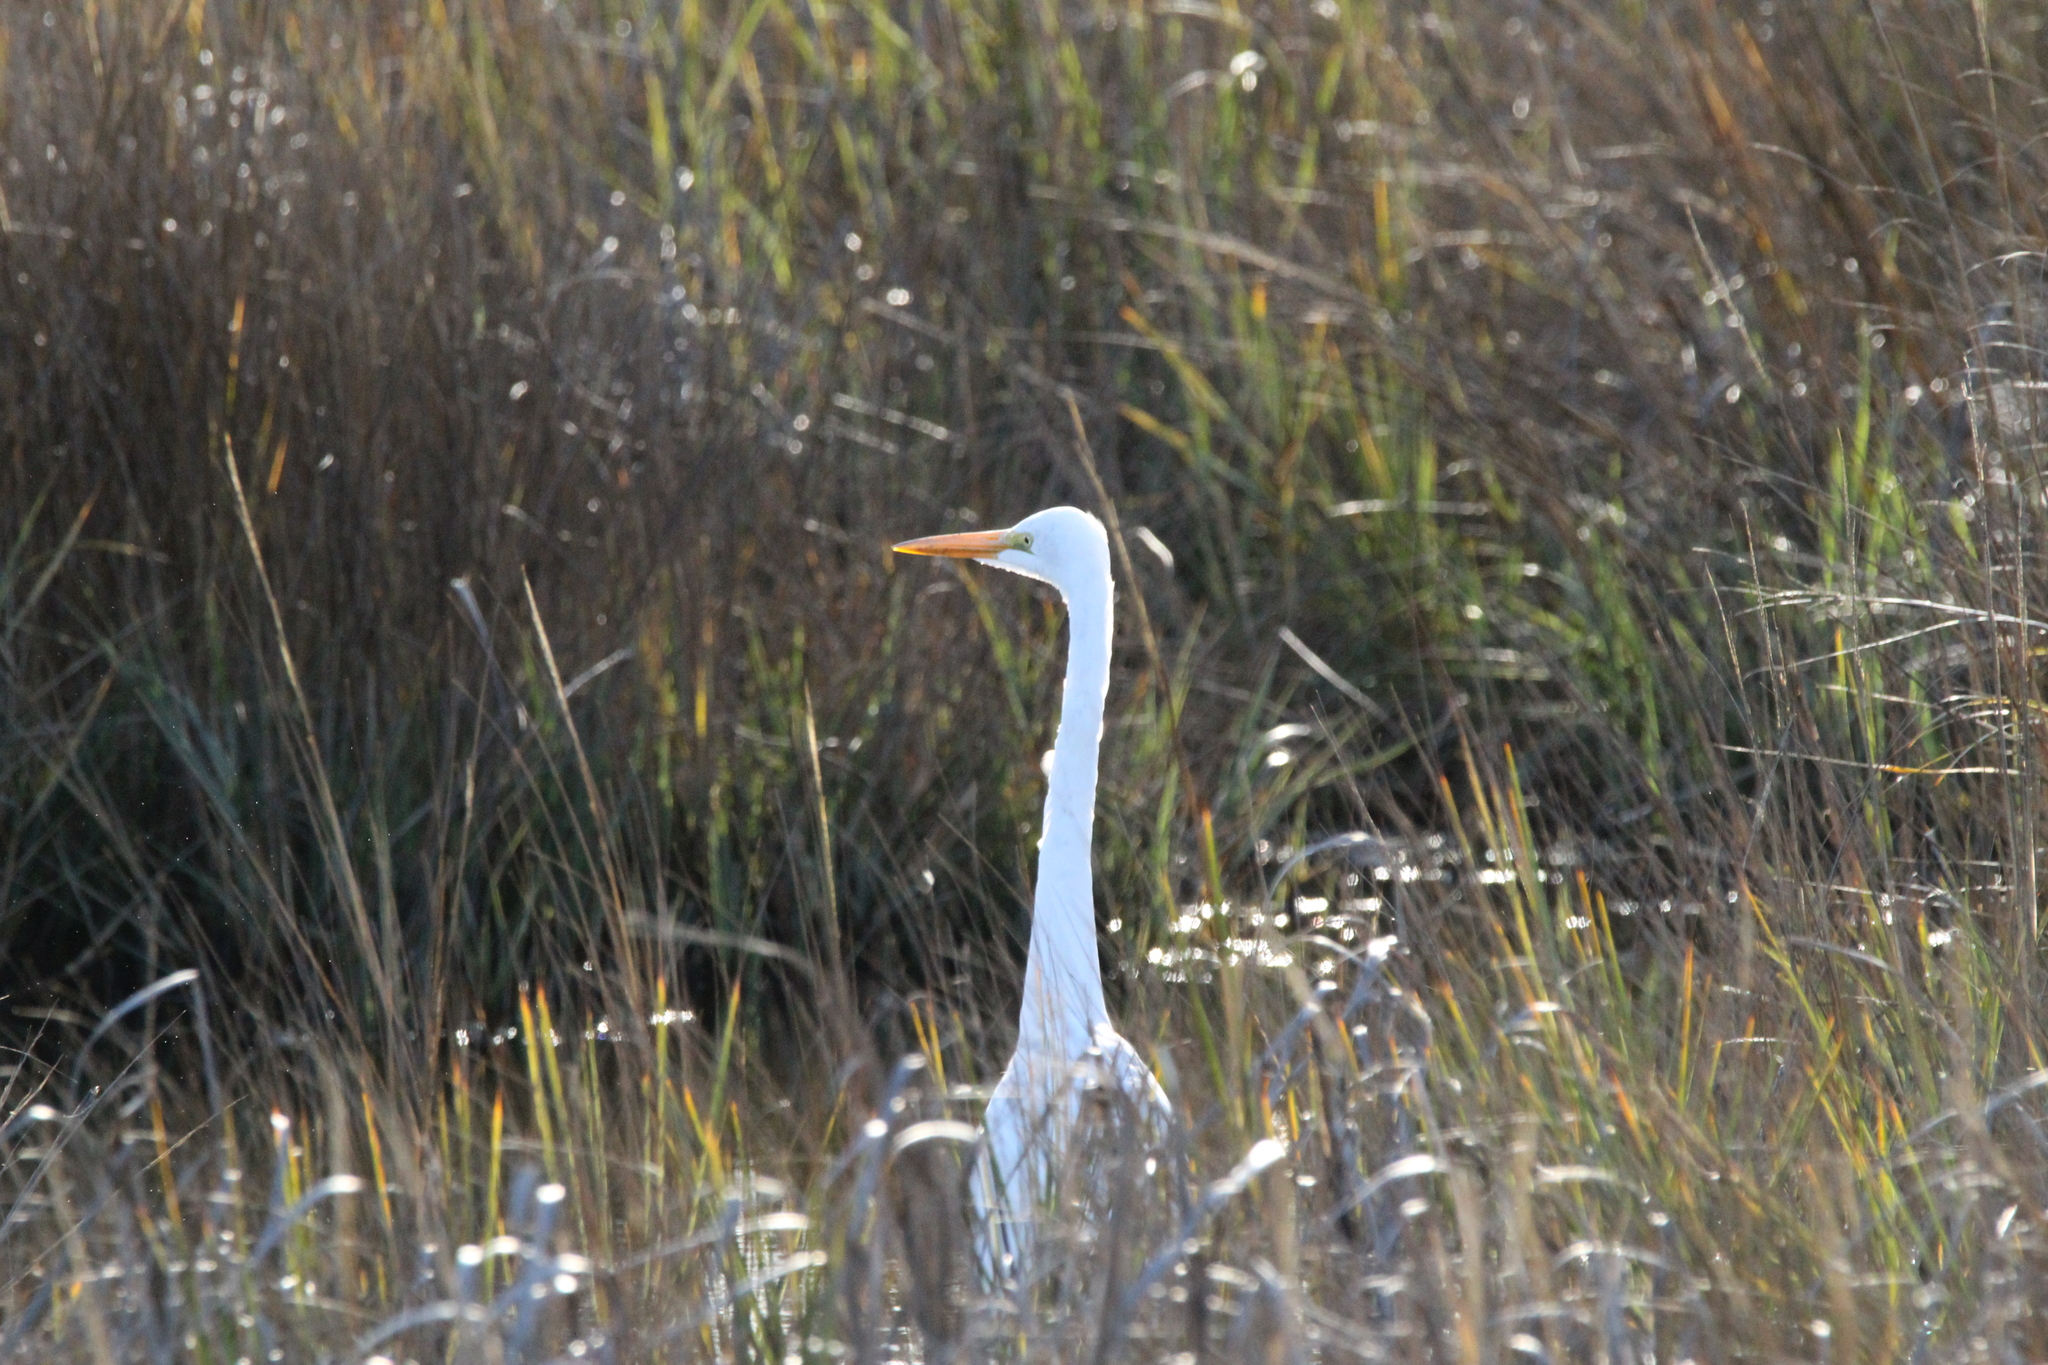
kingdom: Animalia
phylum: Chordata
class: Aves
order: Pelecaniformes
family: Ardeidae
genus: Ardea
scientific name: Ardea alba
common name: Great egret
